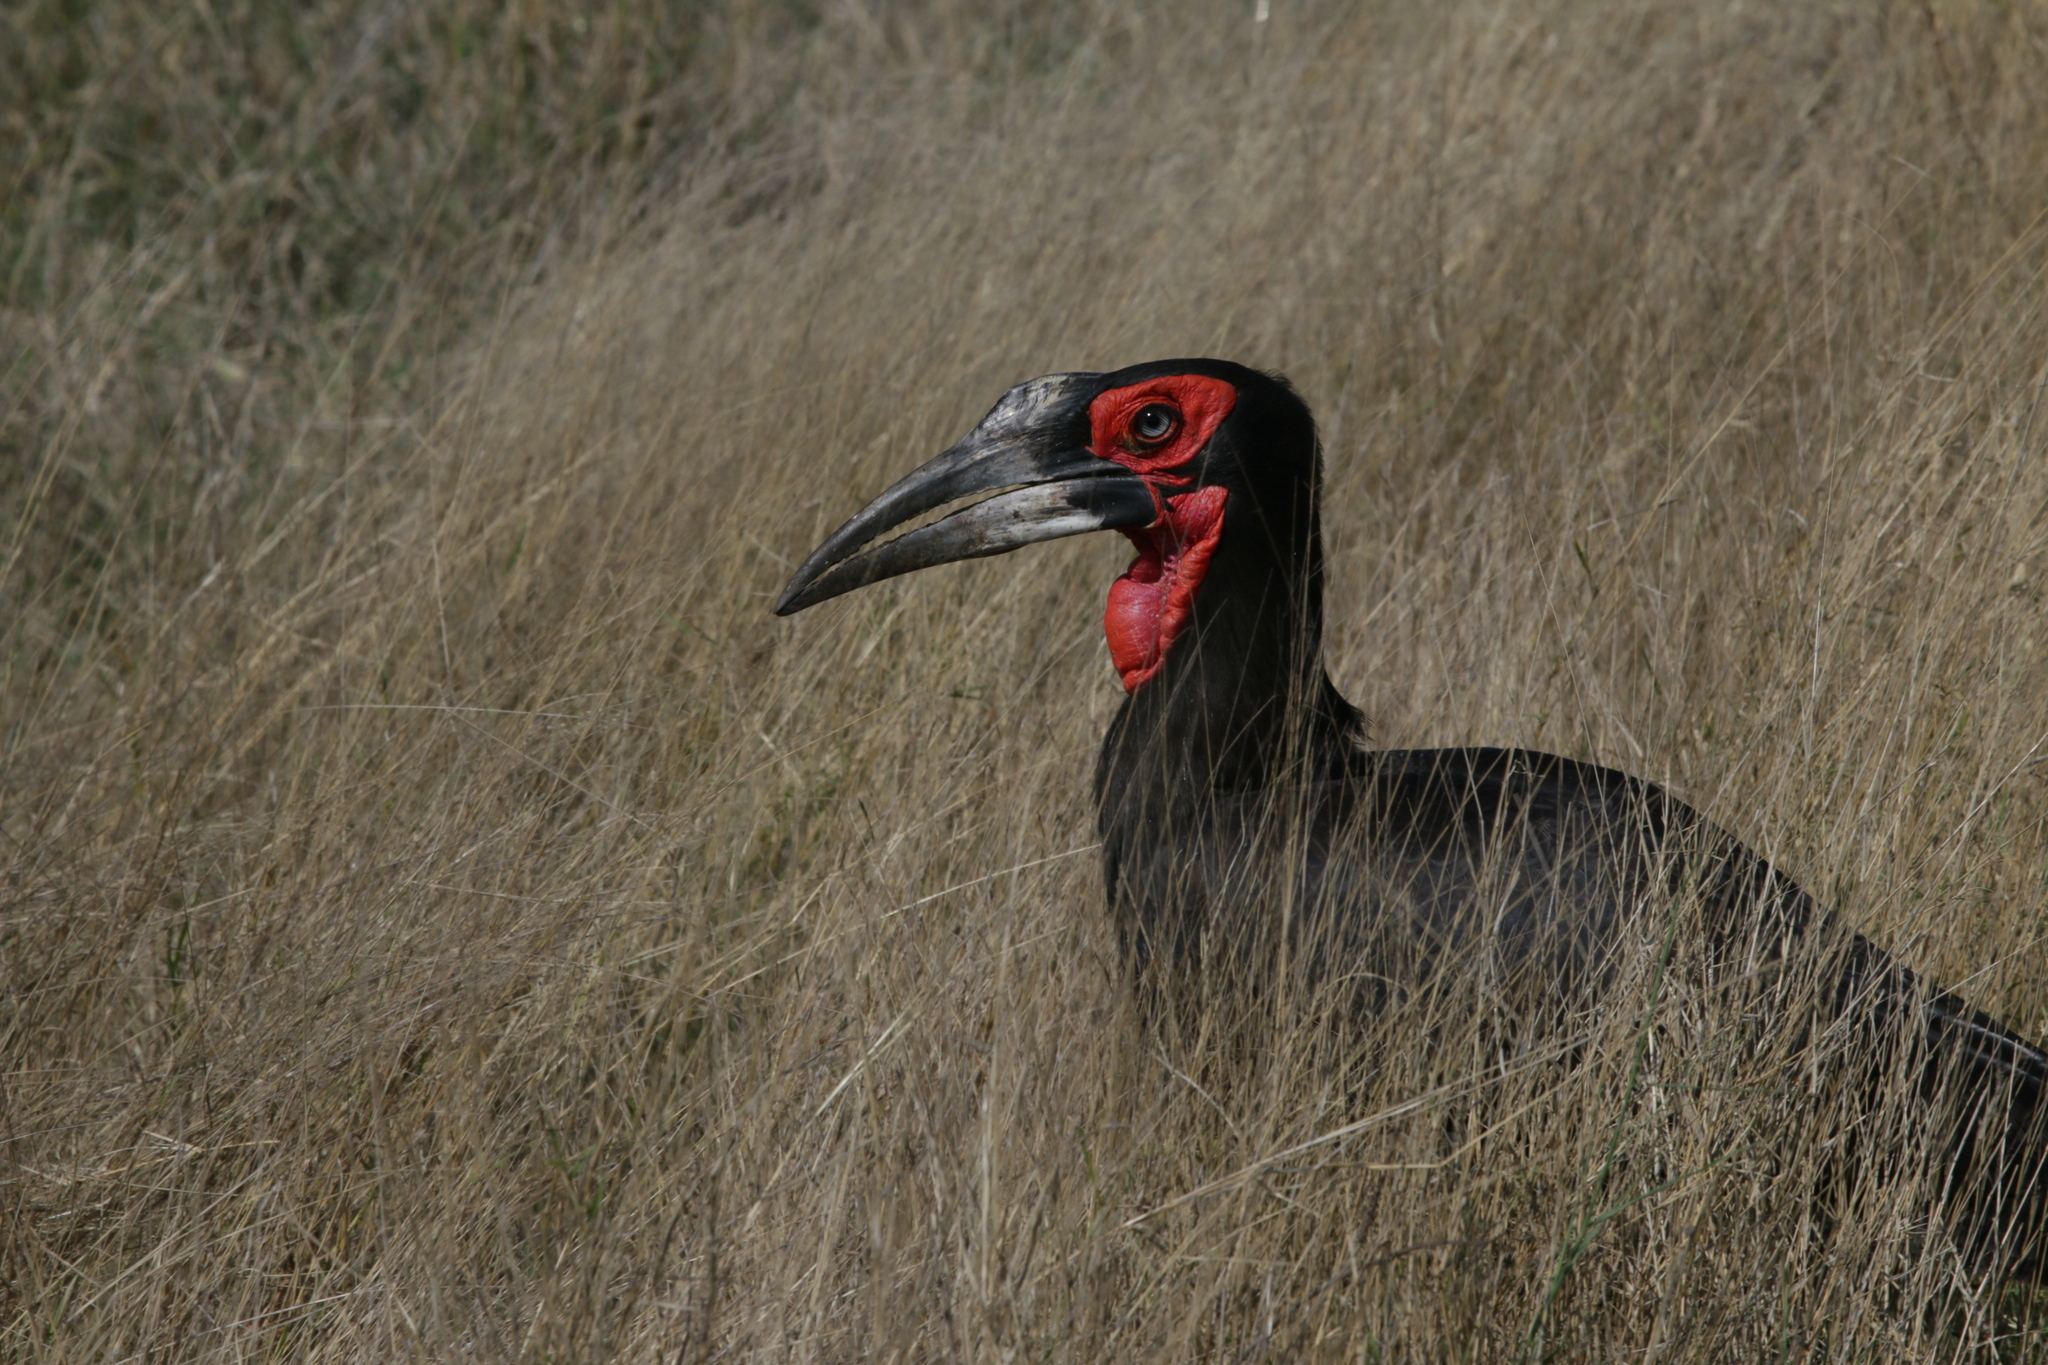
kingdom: Animalia
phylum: Chordata
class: Aves
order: Bucerotiformes
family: Bucorvidae
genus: Bucorvus
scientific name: Bucorvus leadbeateri
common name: Southern ground-hornbill
